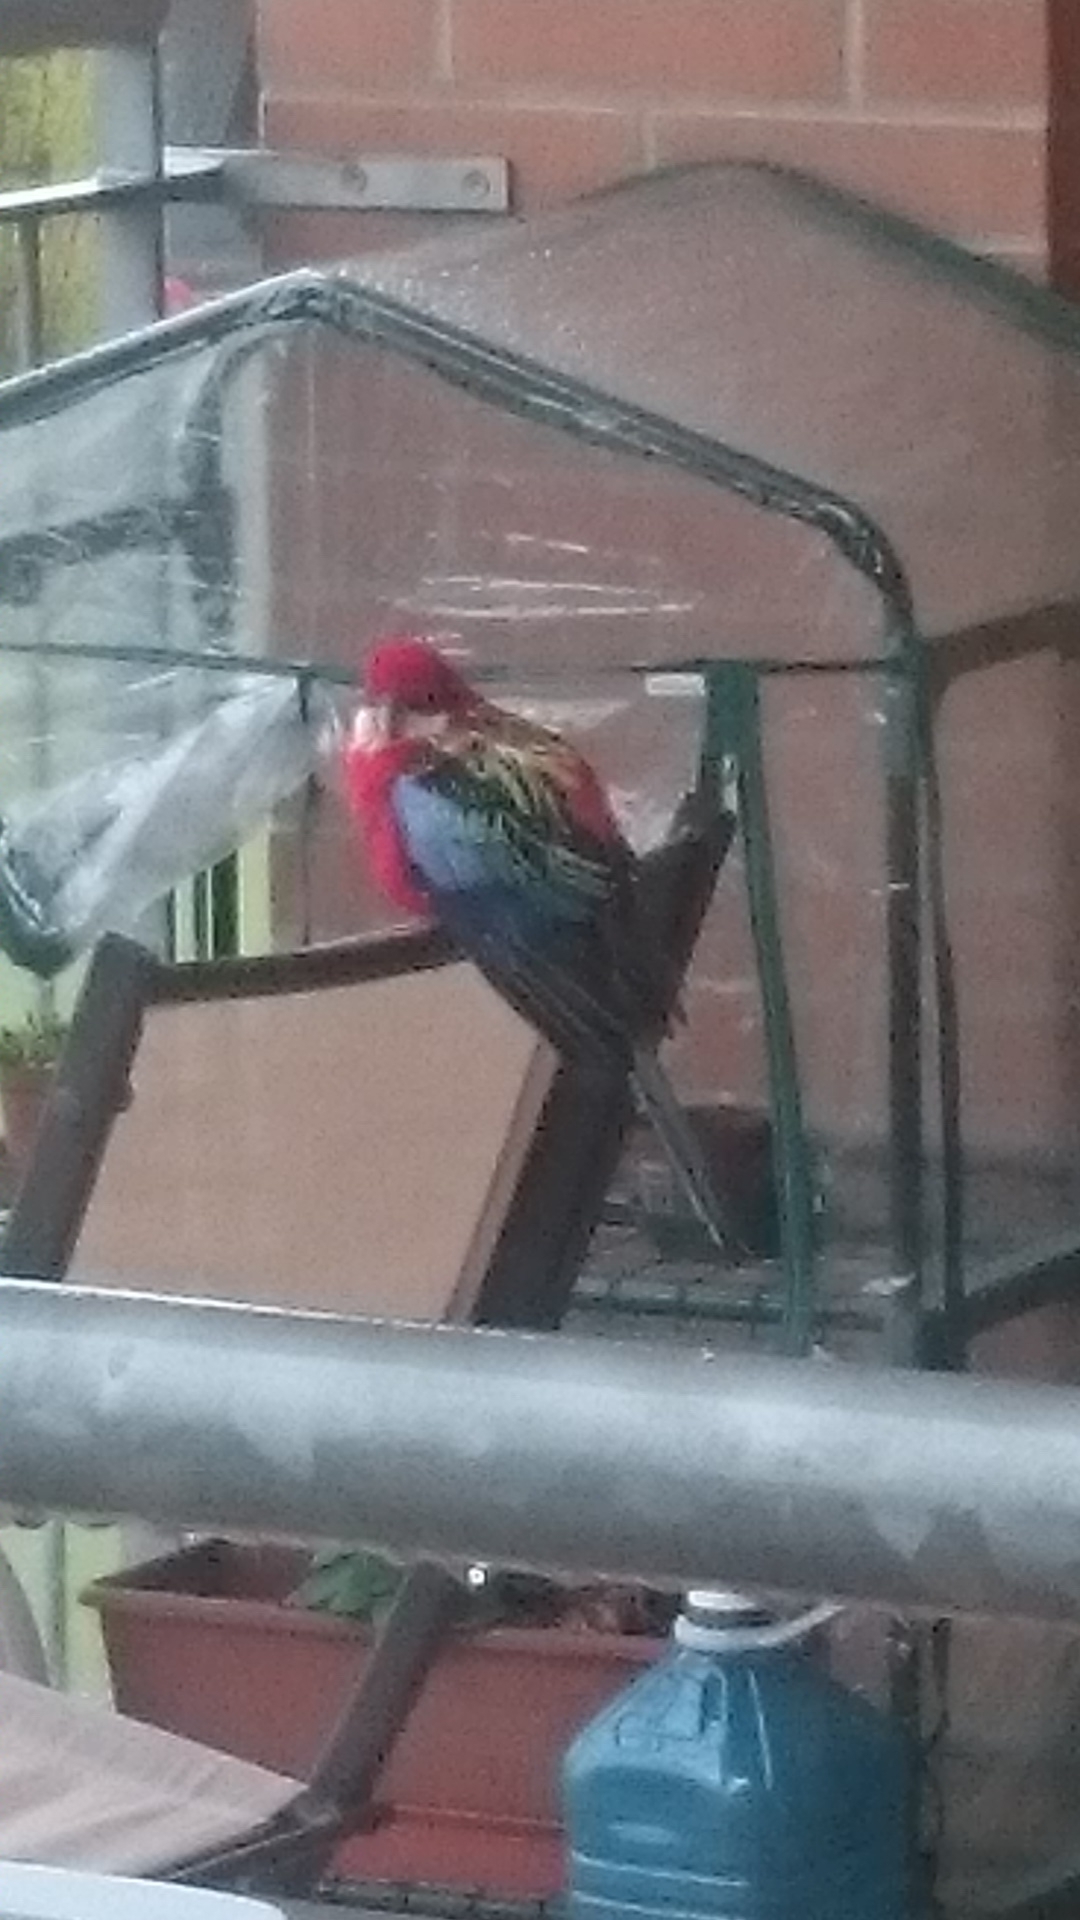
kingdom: Animalia
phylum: Chordata
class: Aves
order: Psittaciformes
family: Psittacidae
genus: Platycercus
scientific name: Platycercus eximius
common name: Eastern rosella
